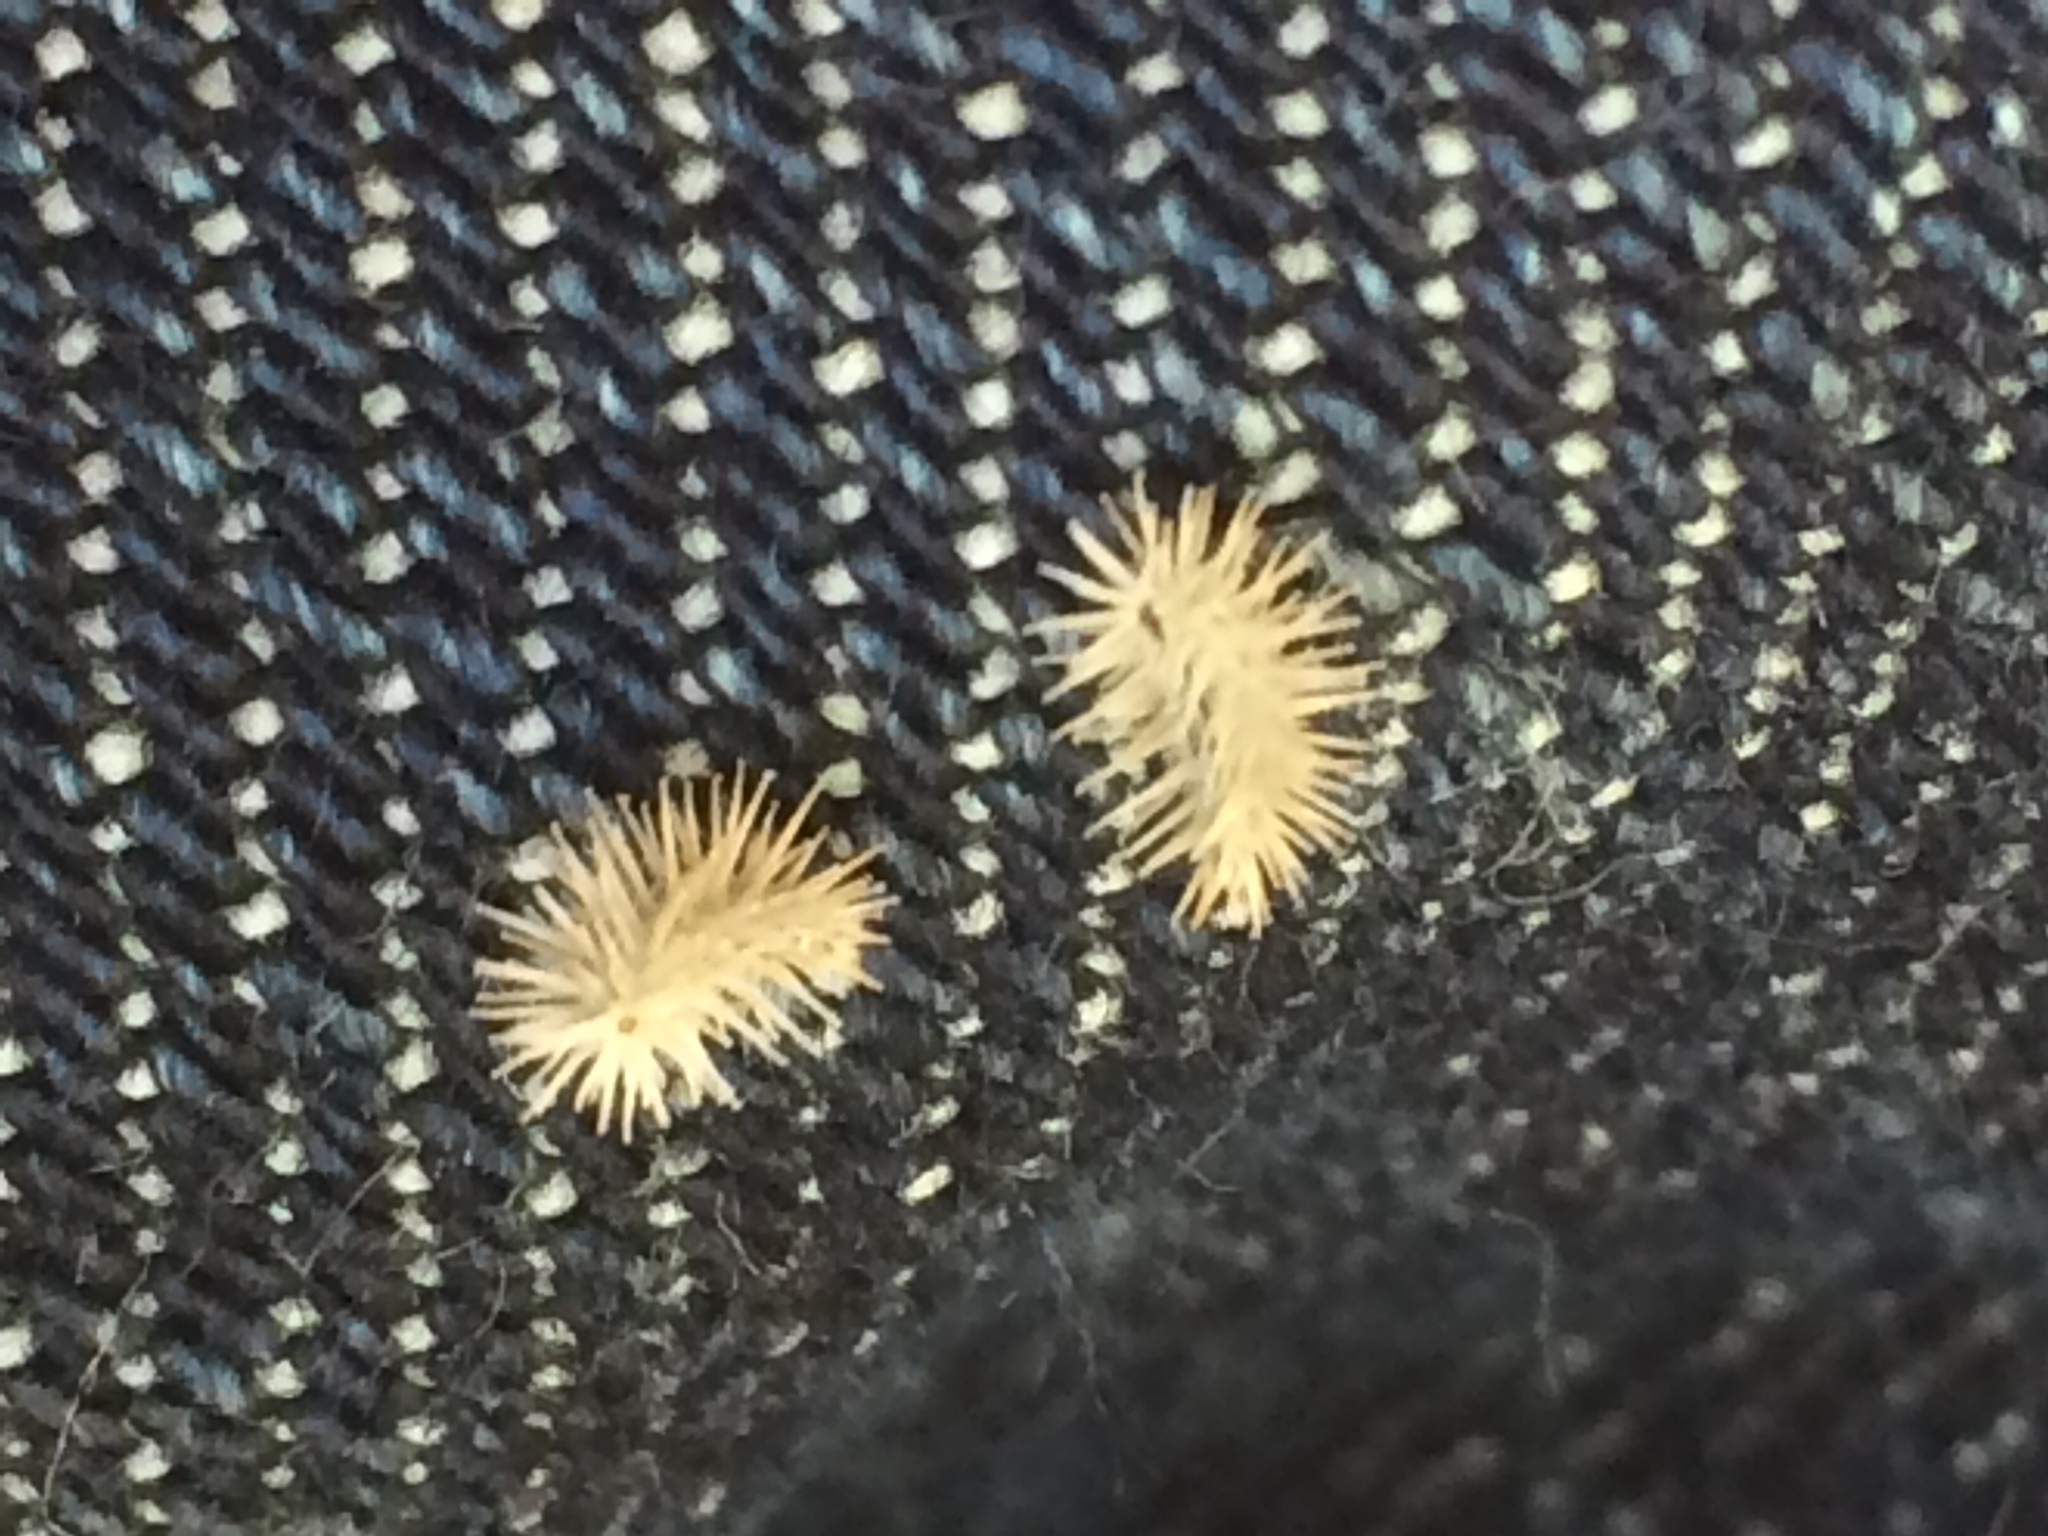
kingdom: Plantae
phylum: Tracheophyta
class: Magnoliopsida
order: Apiales
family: Apiaceae
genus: Torilis
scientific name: Torilis arvensis
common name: Spreading hedge-parsley
